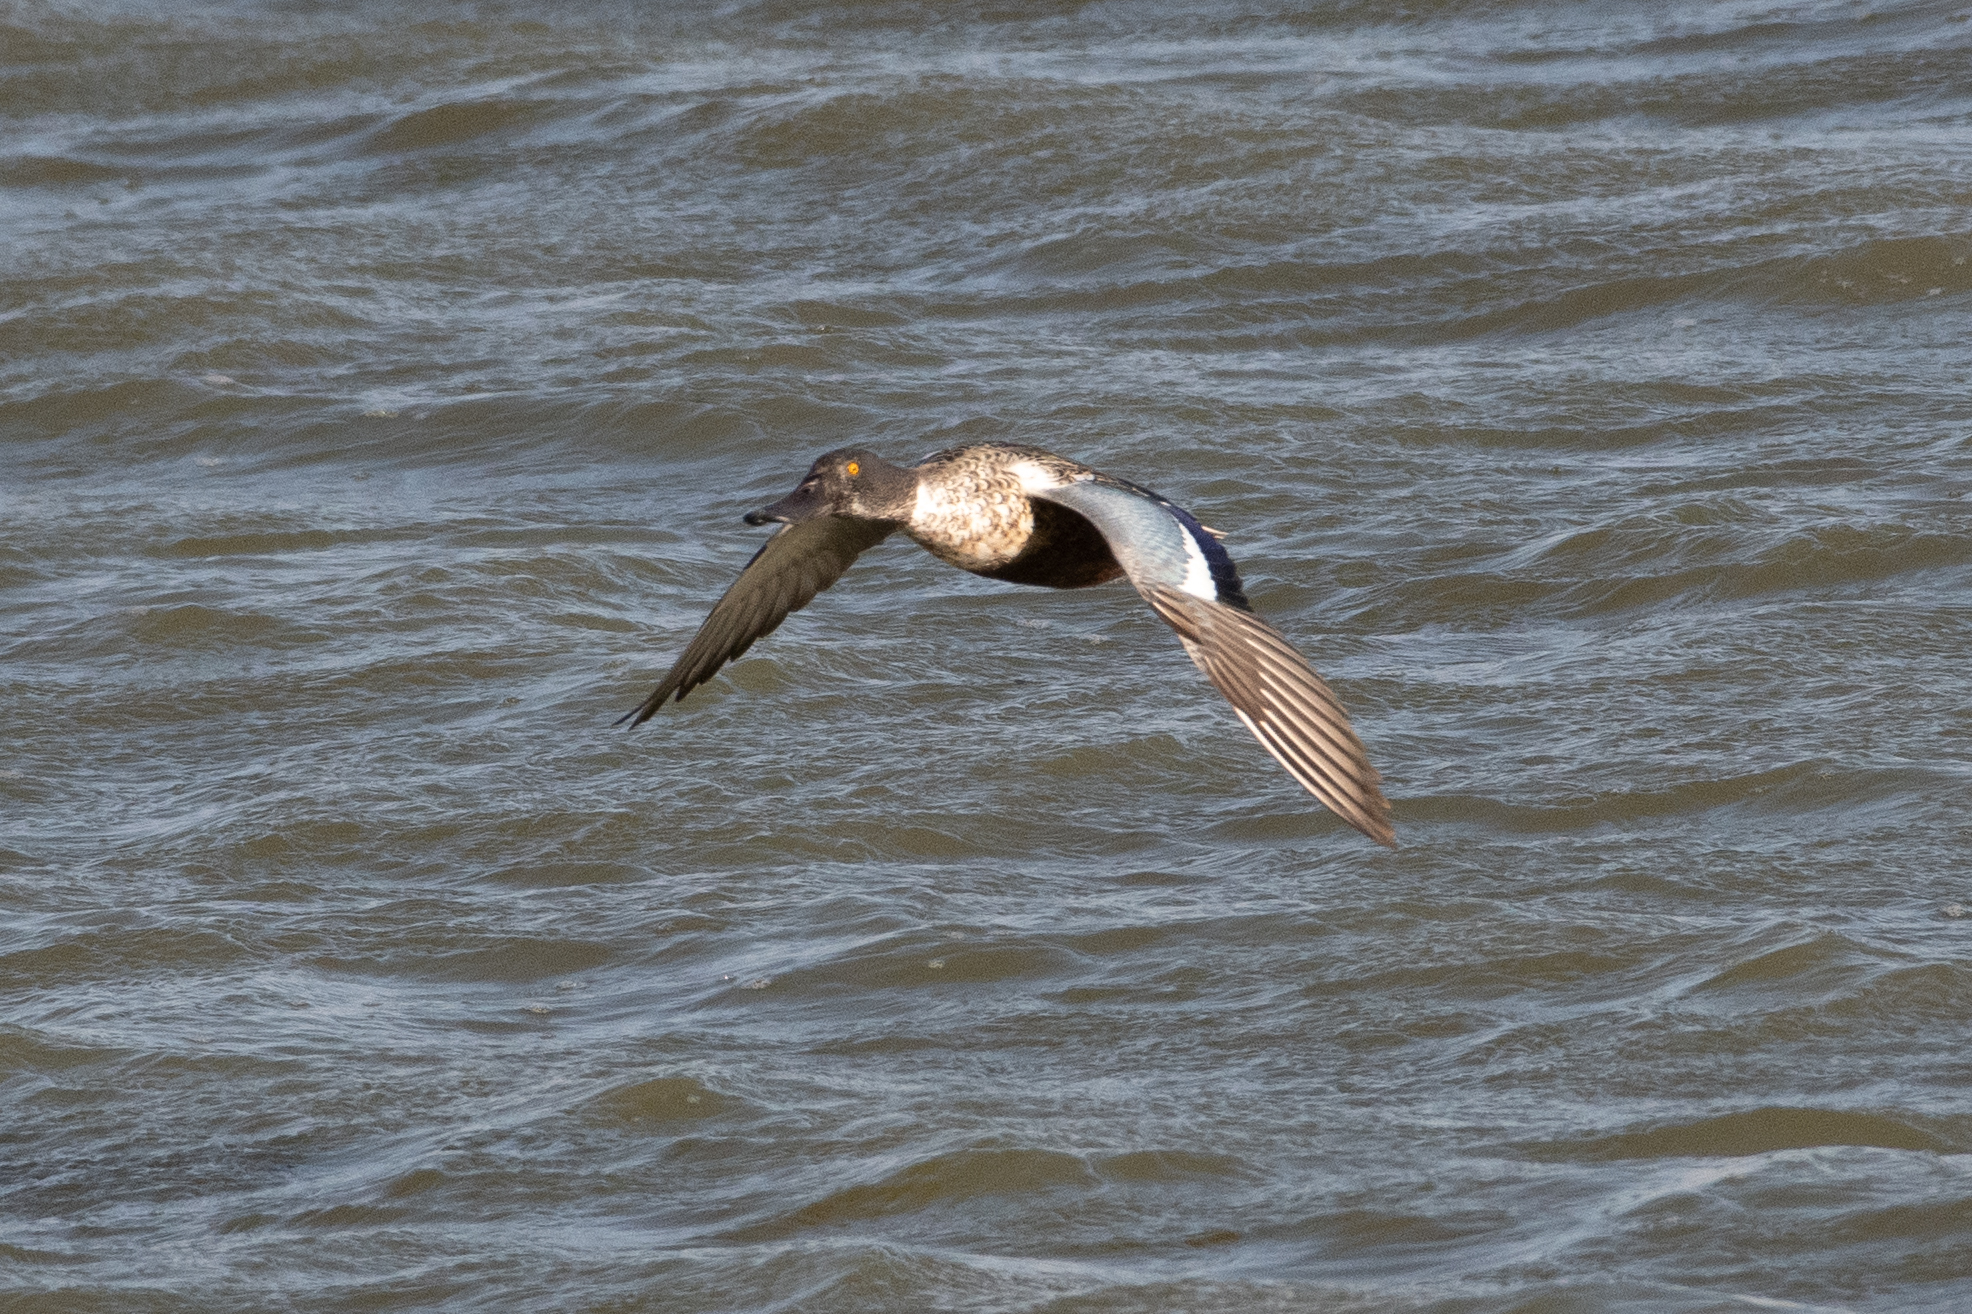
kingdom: Animalia
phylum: Chordata
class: Aves
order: Anseriformes
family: Anatidae
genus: Spatula
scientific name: Spatula clypeata
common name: Northern shoveler
